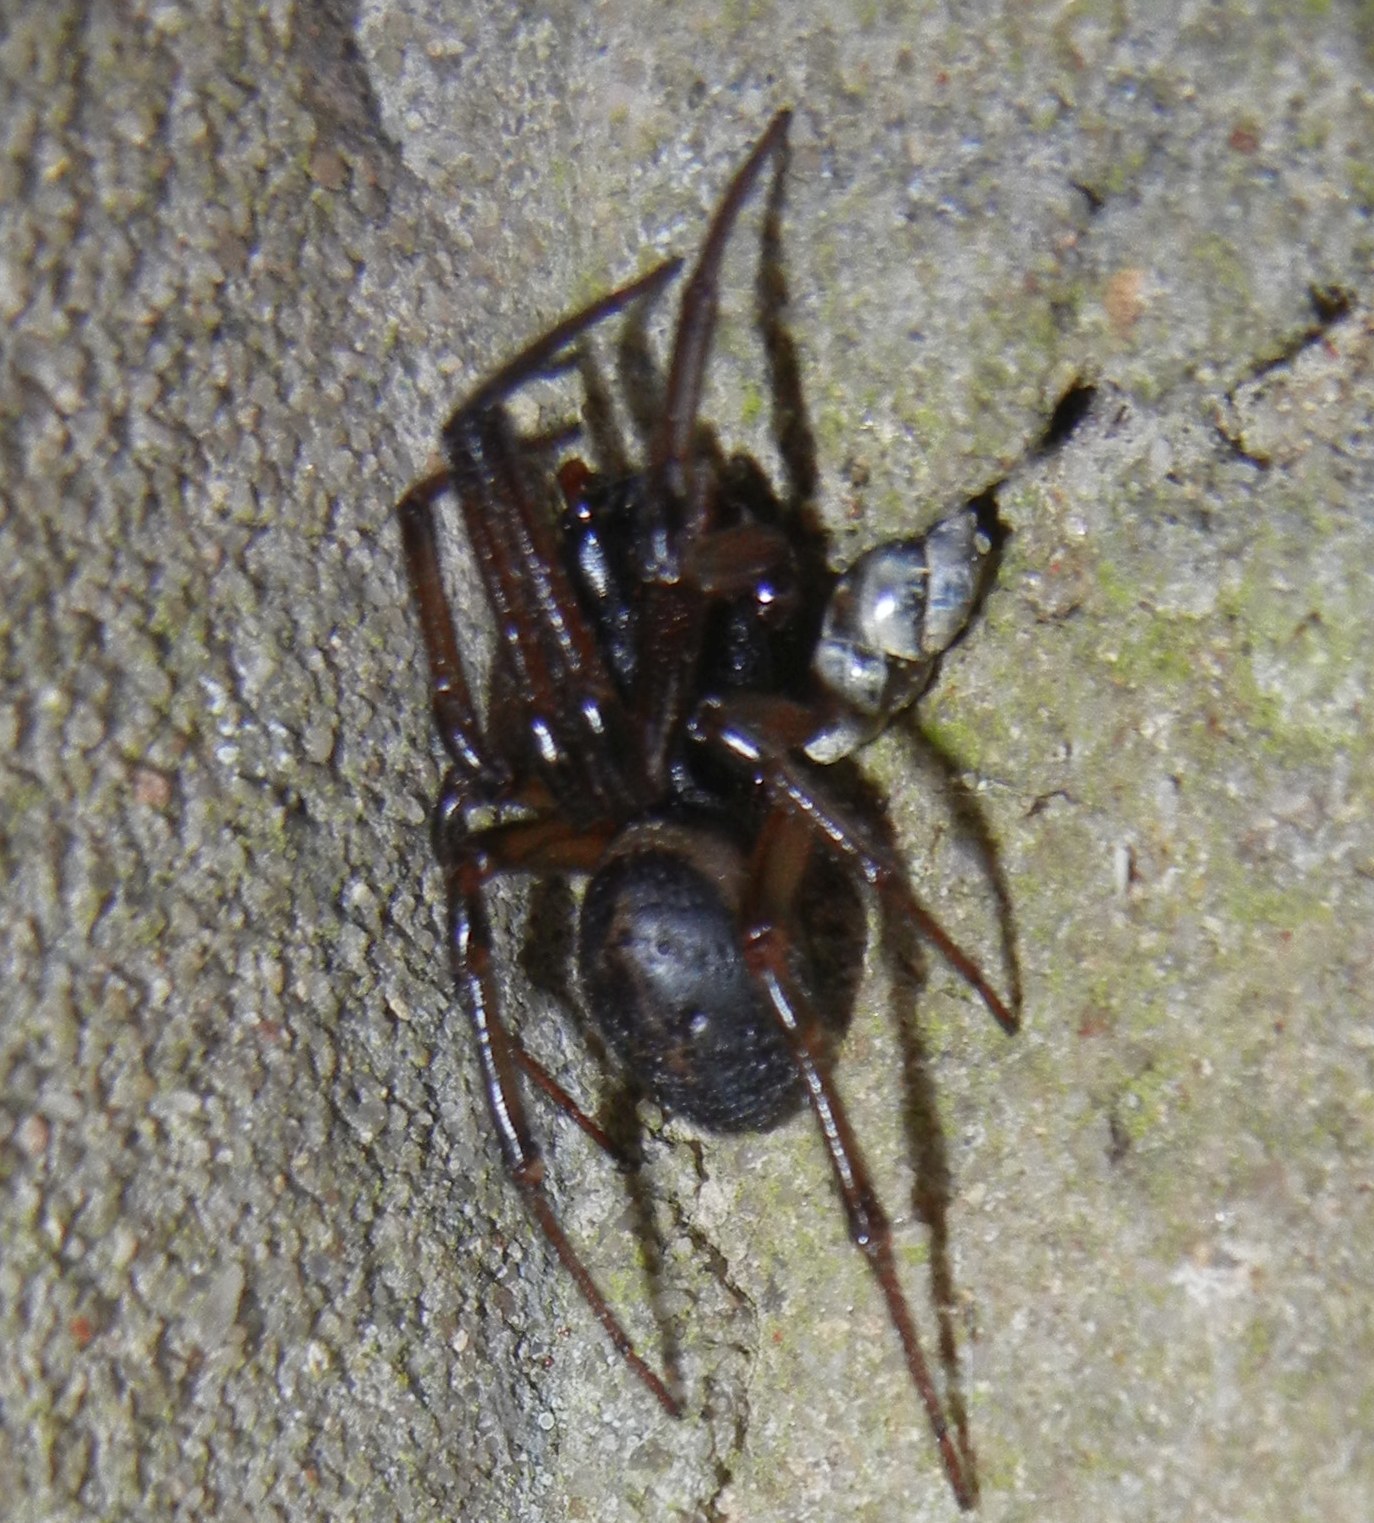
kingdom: Animalia
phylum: Arthropoda
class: Arachnida
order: Araneae
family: Theridiidae
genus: Steatoda
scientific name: Steatoda nobilis
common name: Cobweb weaver
